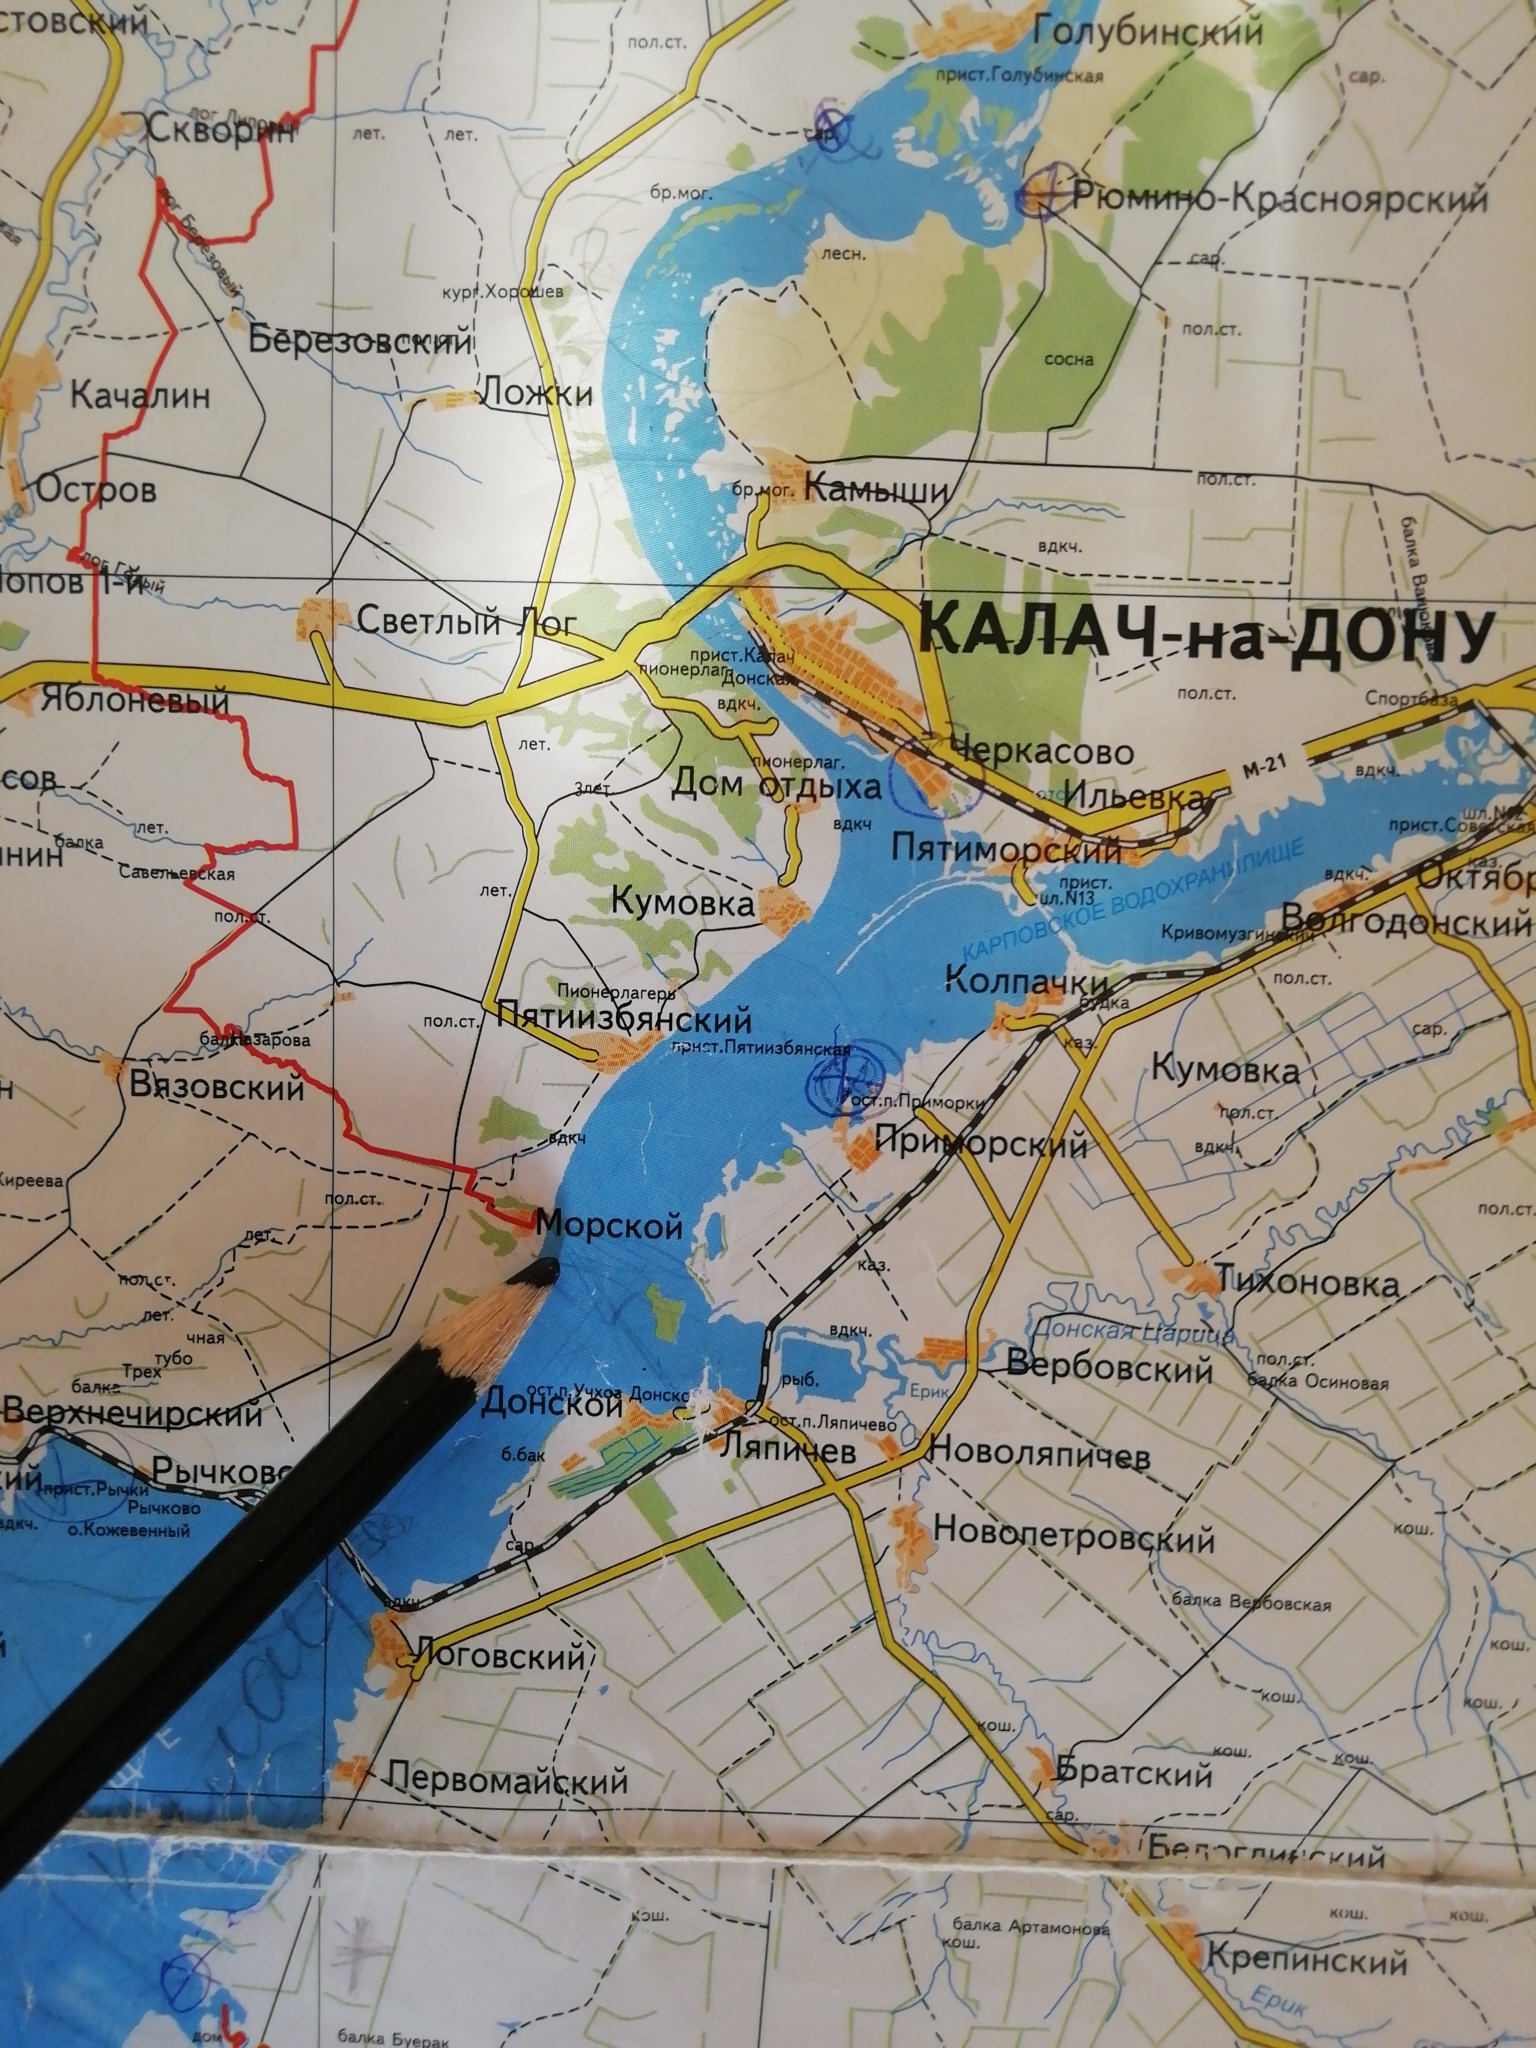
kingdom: Animalia
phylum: Chordata
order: Siluriformes
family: Siluridae
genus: Silurus
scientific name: Silurus glanis
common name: Wels
